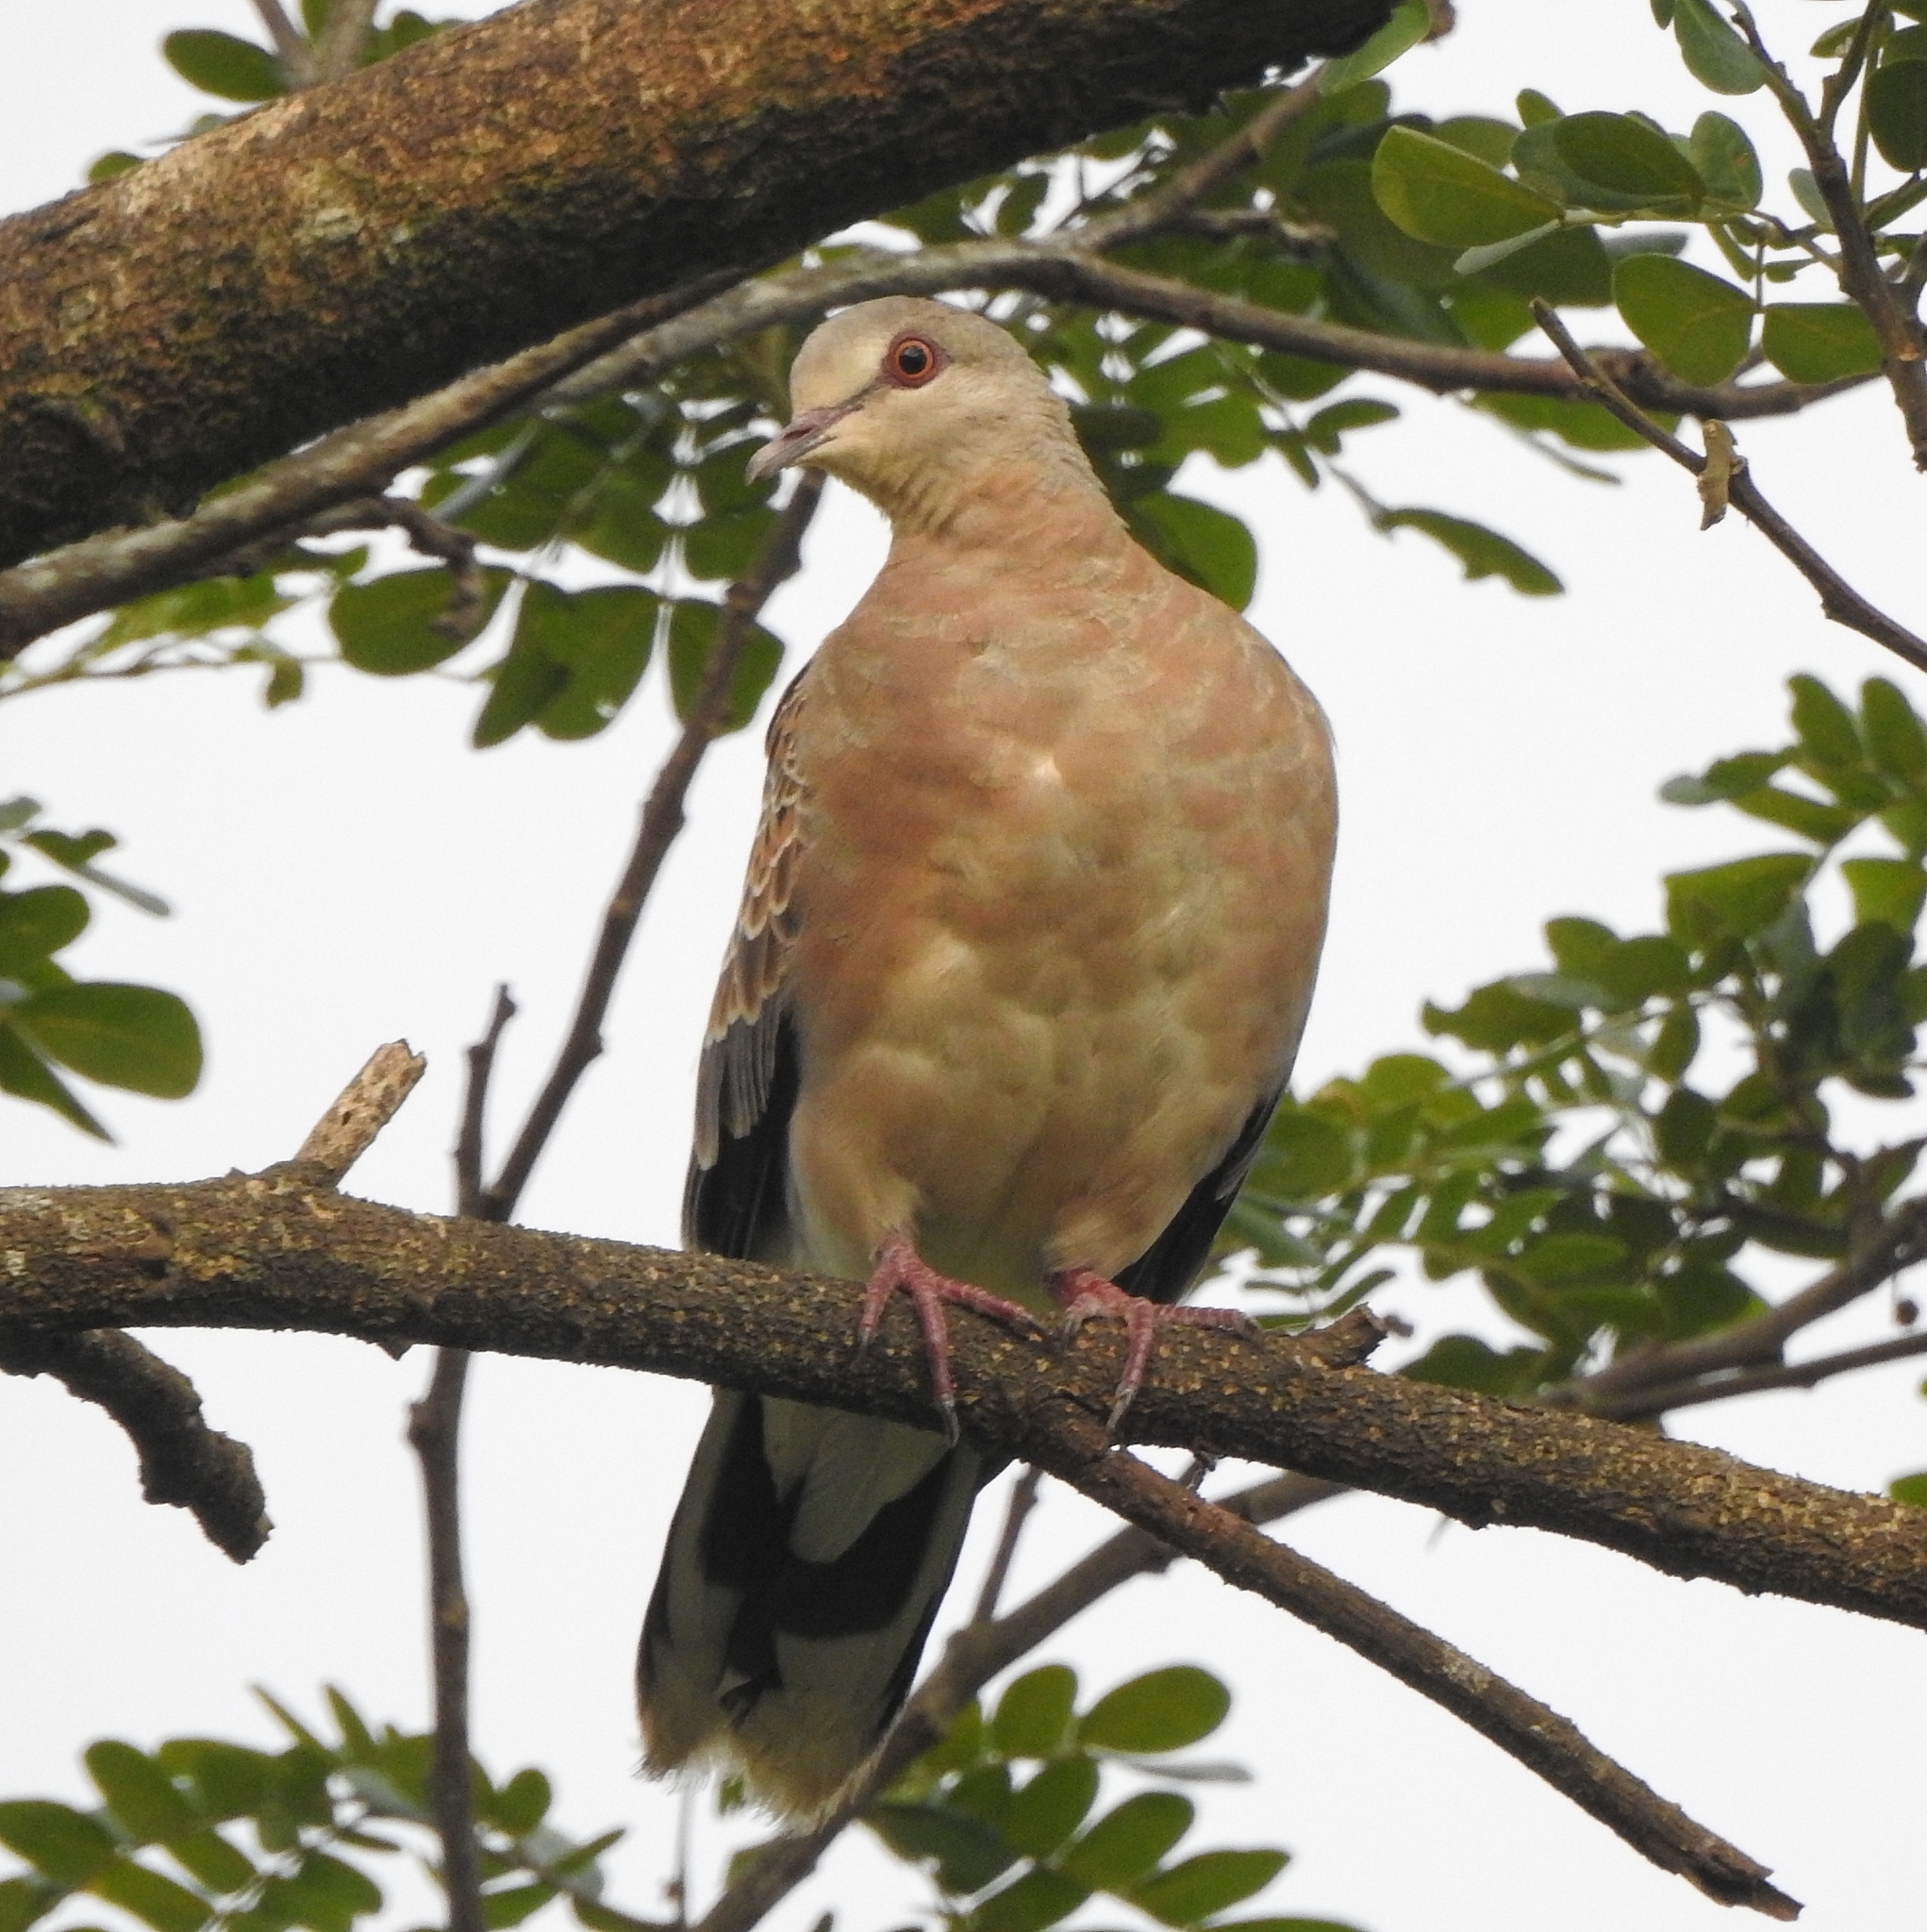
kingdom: Animalia
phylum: Chordata
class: Aves
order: Columbiformes
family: Columbidae
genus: Streptopelia
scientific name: Streptopelia orientalis
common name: Oriental turtle dove
